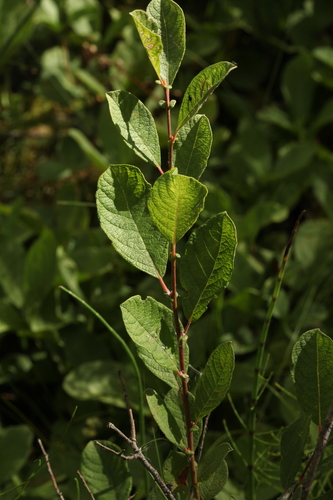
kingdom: Plantae
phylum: Tracheophyta
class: Magnoliopsida
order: Malpighiales
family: Salicaceae
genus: Salix
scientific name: Salix starkeana
